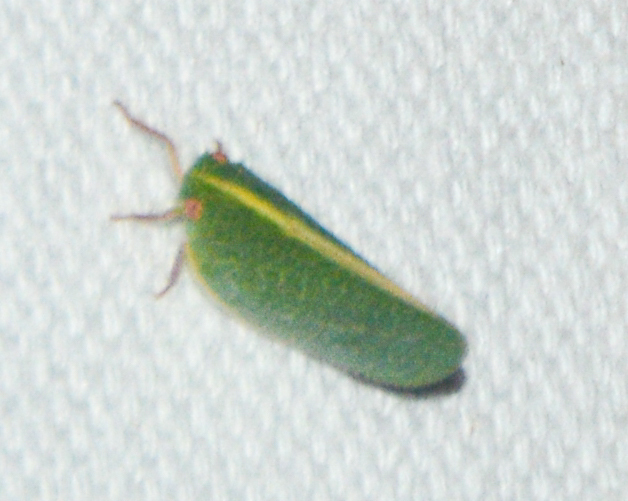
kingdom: Animalia
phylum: Arthropoda
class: Insecta
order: Hemiptera
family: Acanaloniidae
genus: Acanalonia
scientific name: Acanalonia servillei
